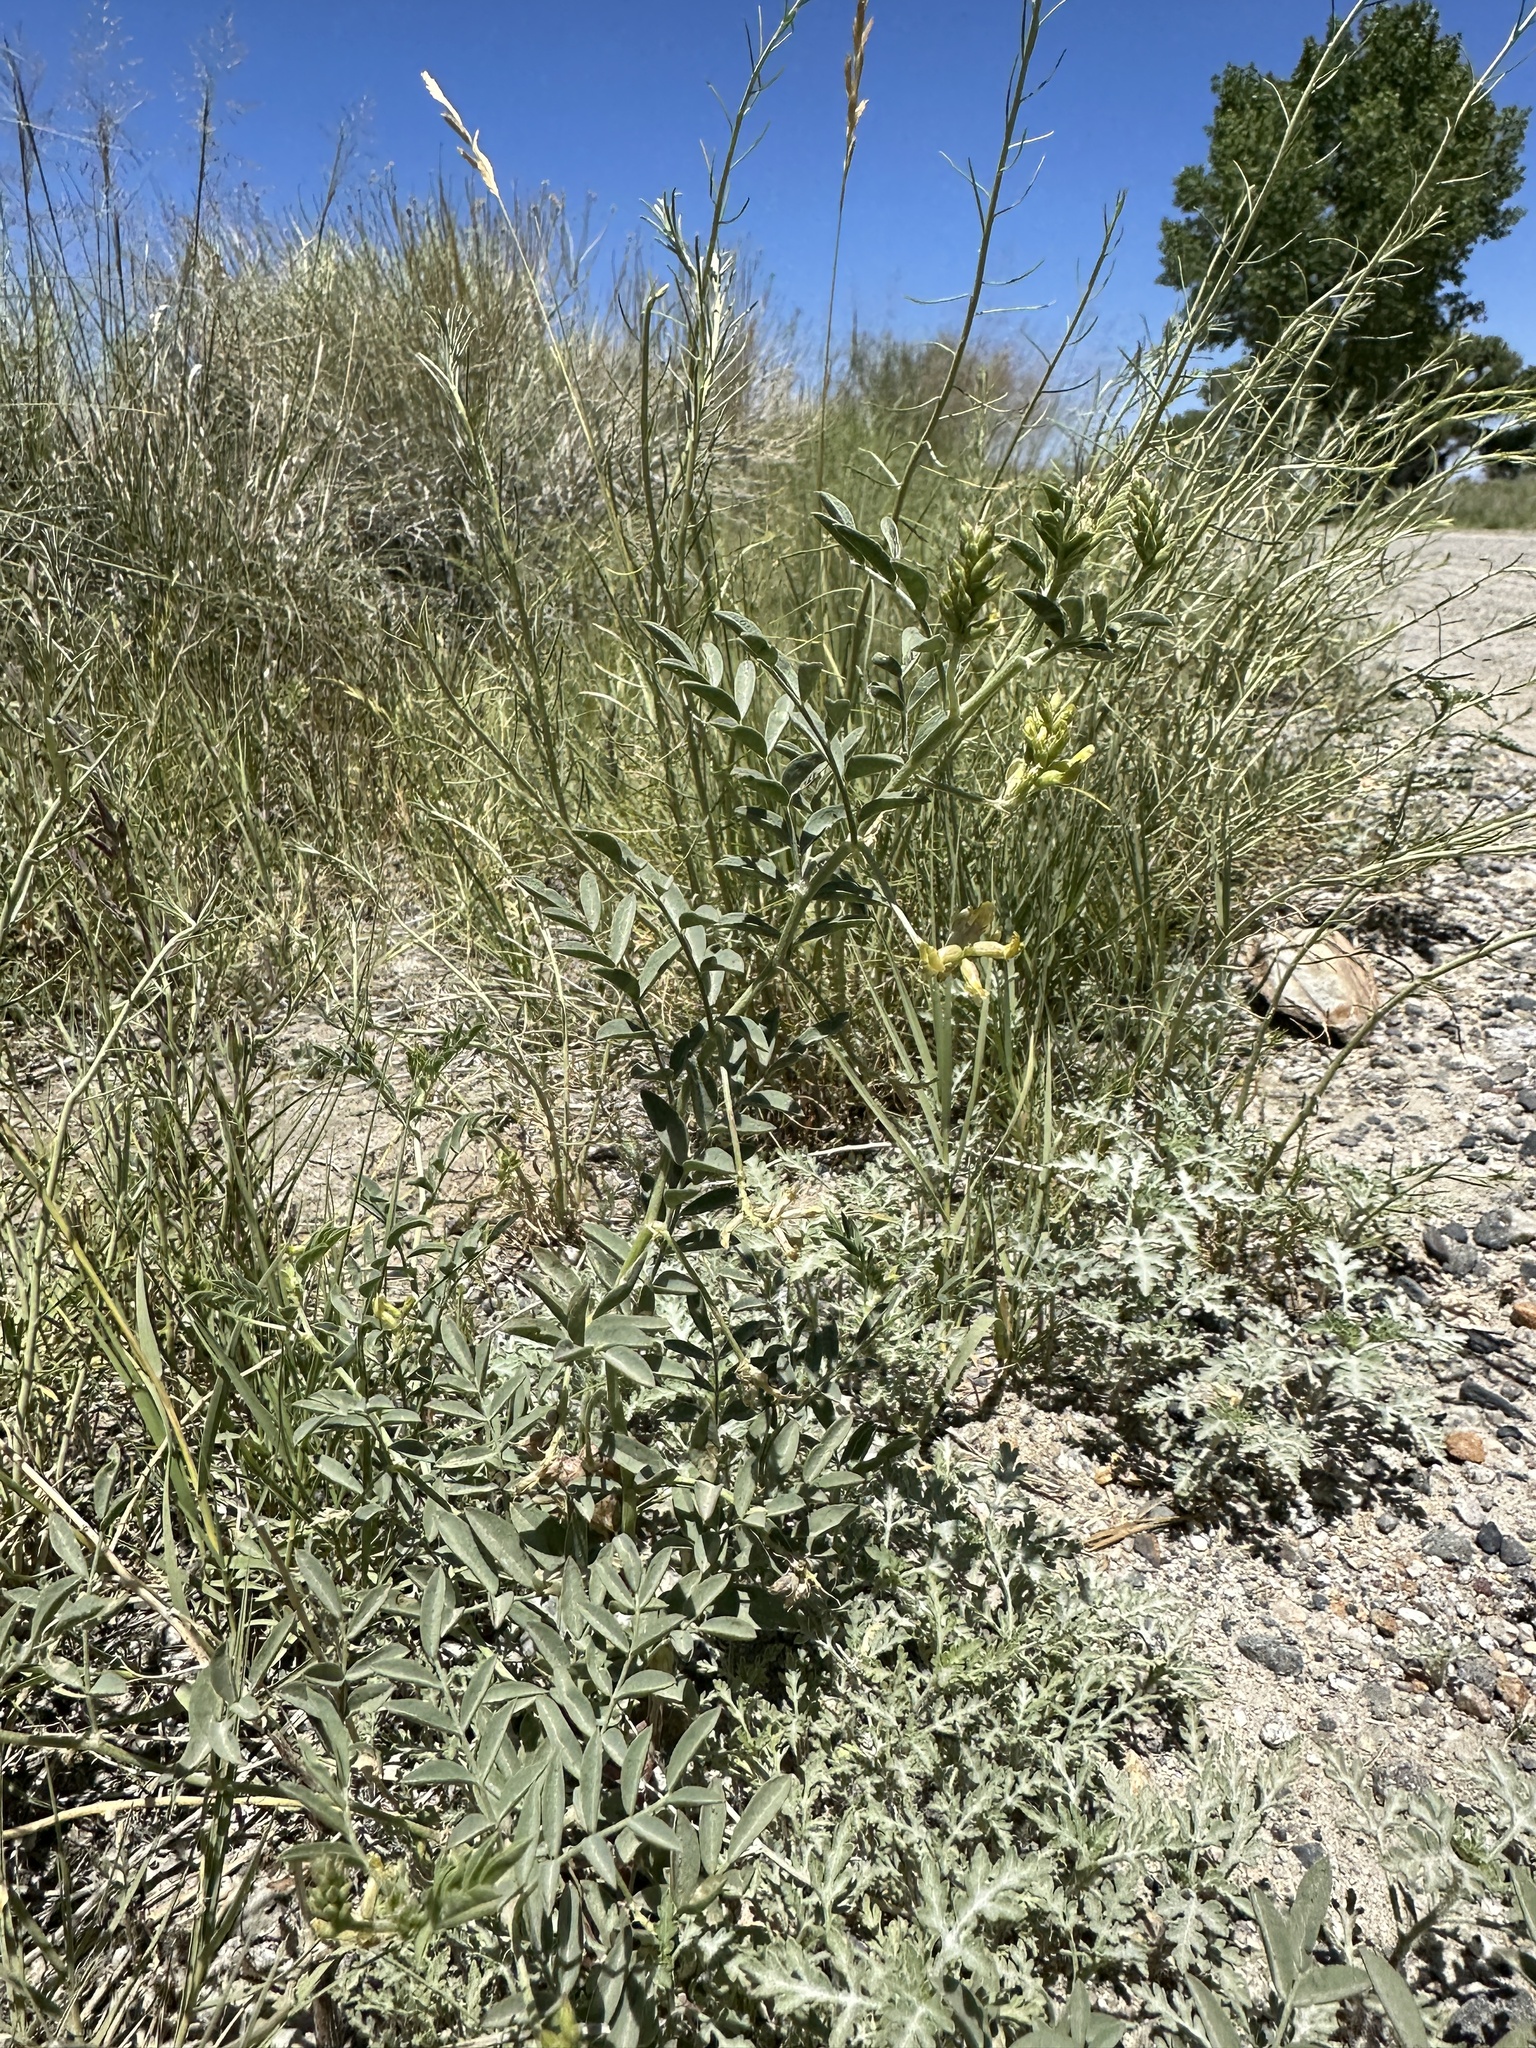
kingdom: Plantae
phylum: Tracheophyta
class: Magnoliopsida
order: Fabales
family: Fabaceae
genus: Astragalus
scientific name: Astragalus lentiginosus
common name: Freckled milkvetch
